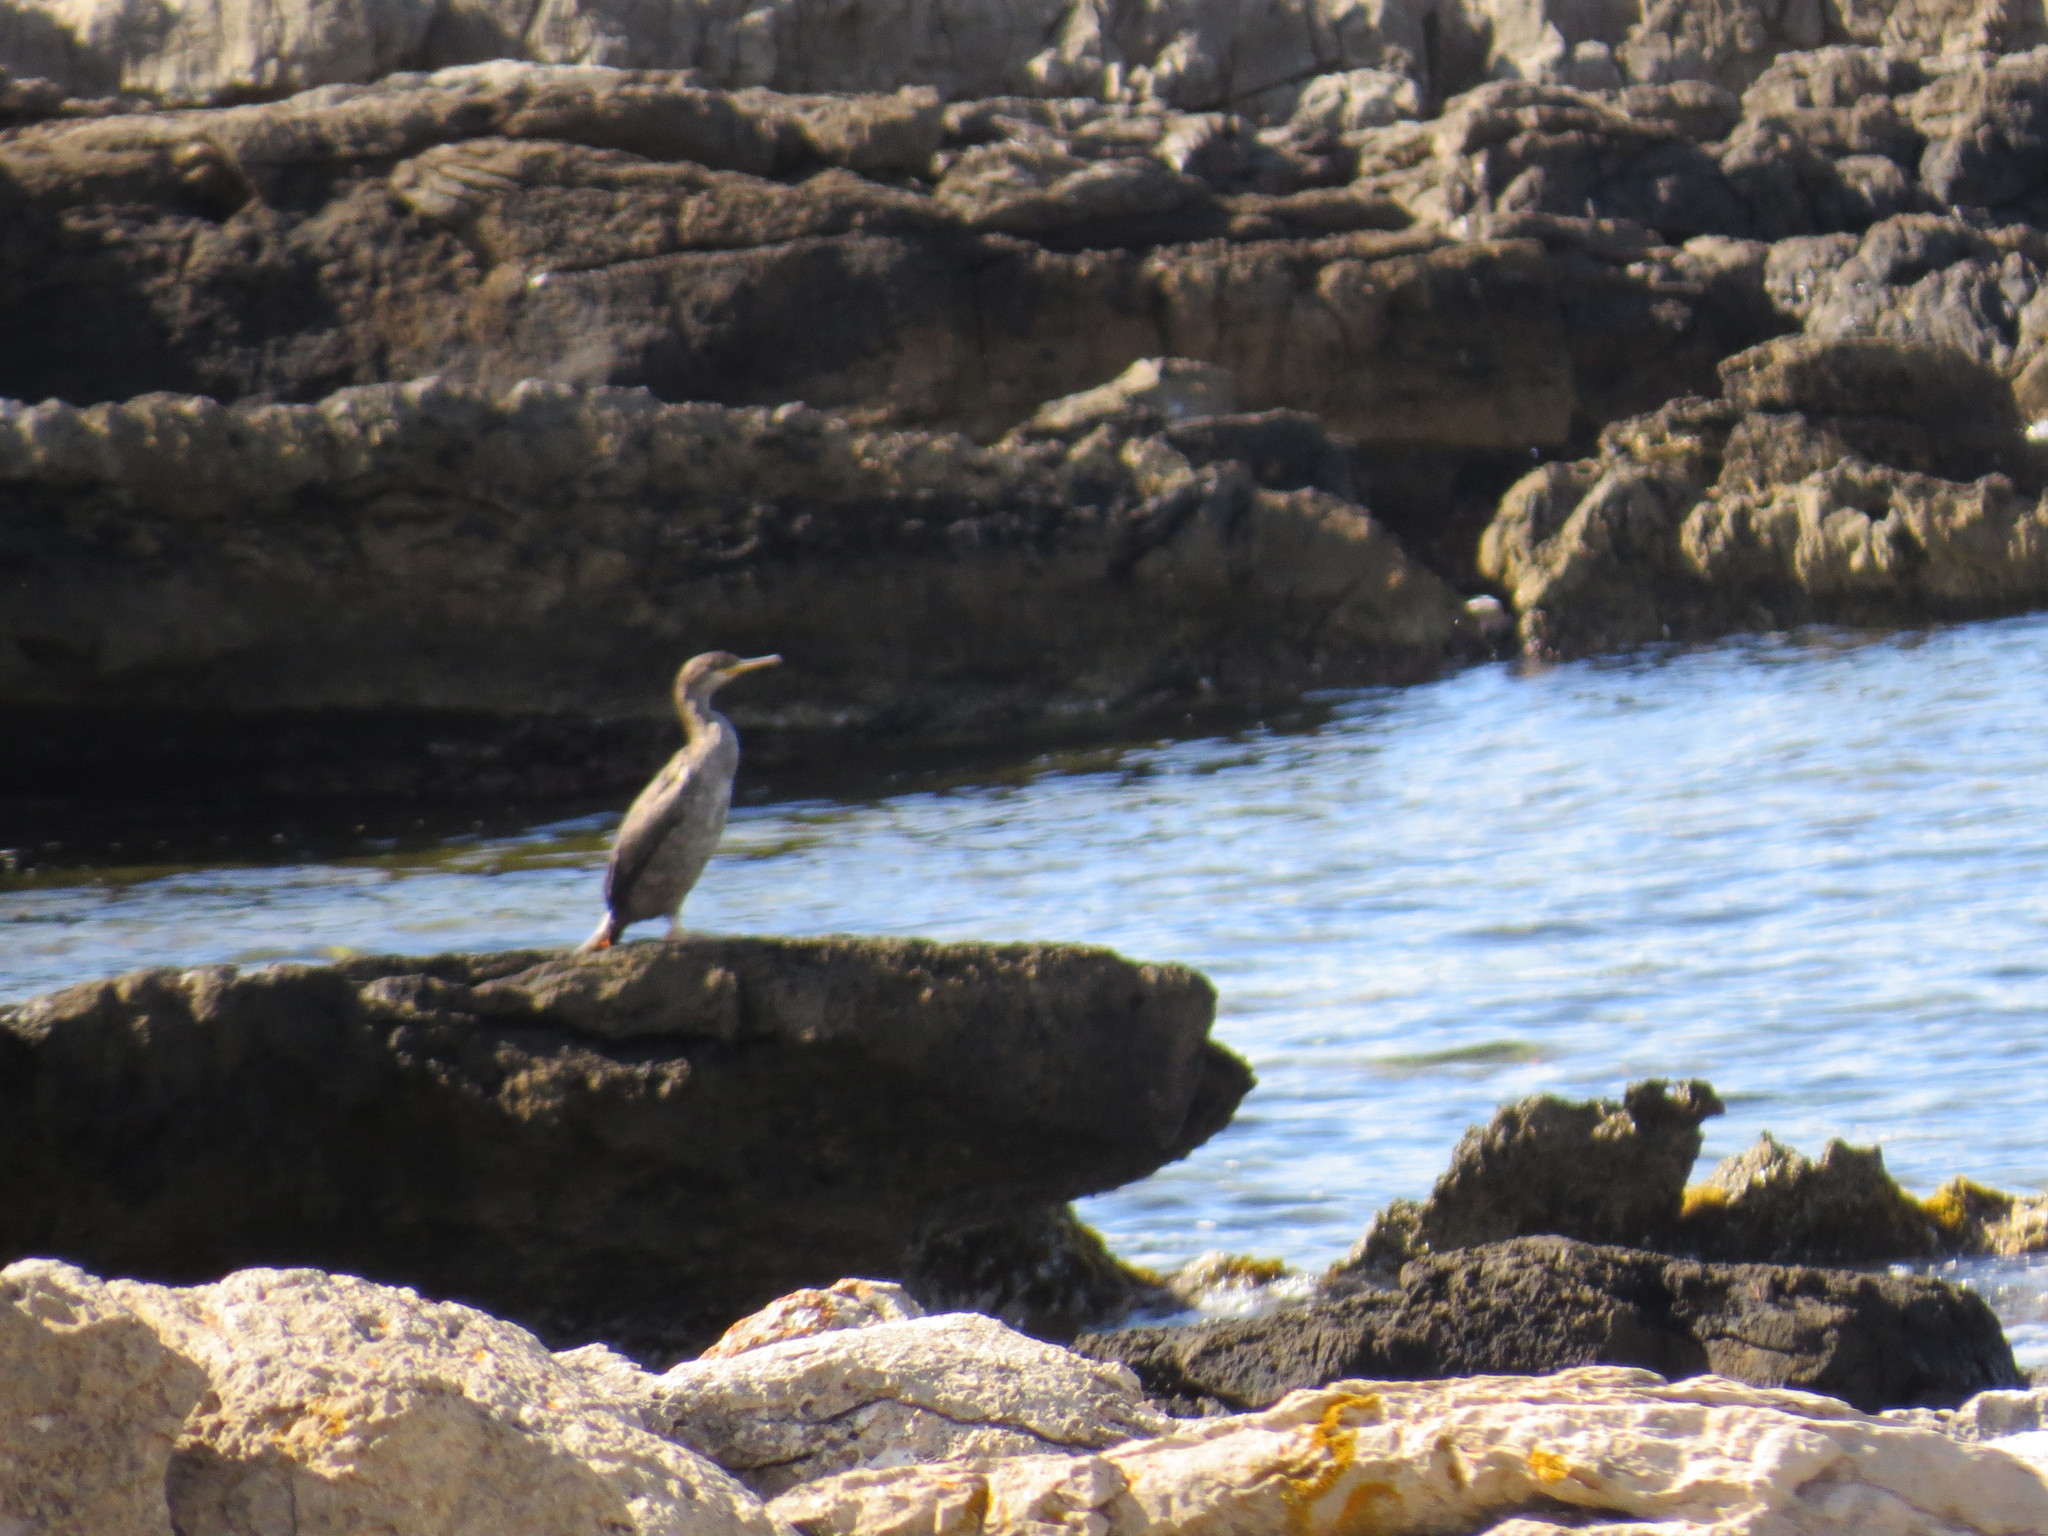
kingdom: Animalia
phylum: Chordata
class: Aves
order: Suliformes
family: Phalacrocoracidae
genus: Phalacrocorax
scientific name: Phalacrocorax aristotelis
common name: European shag
